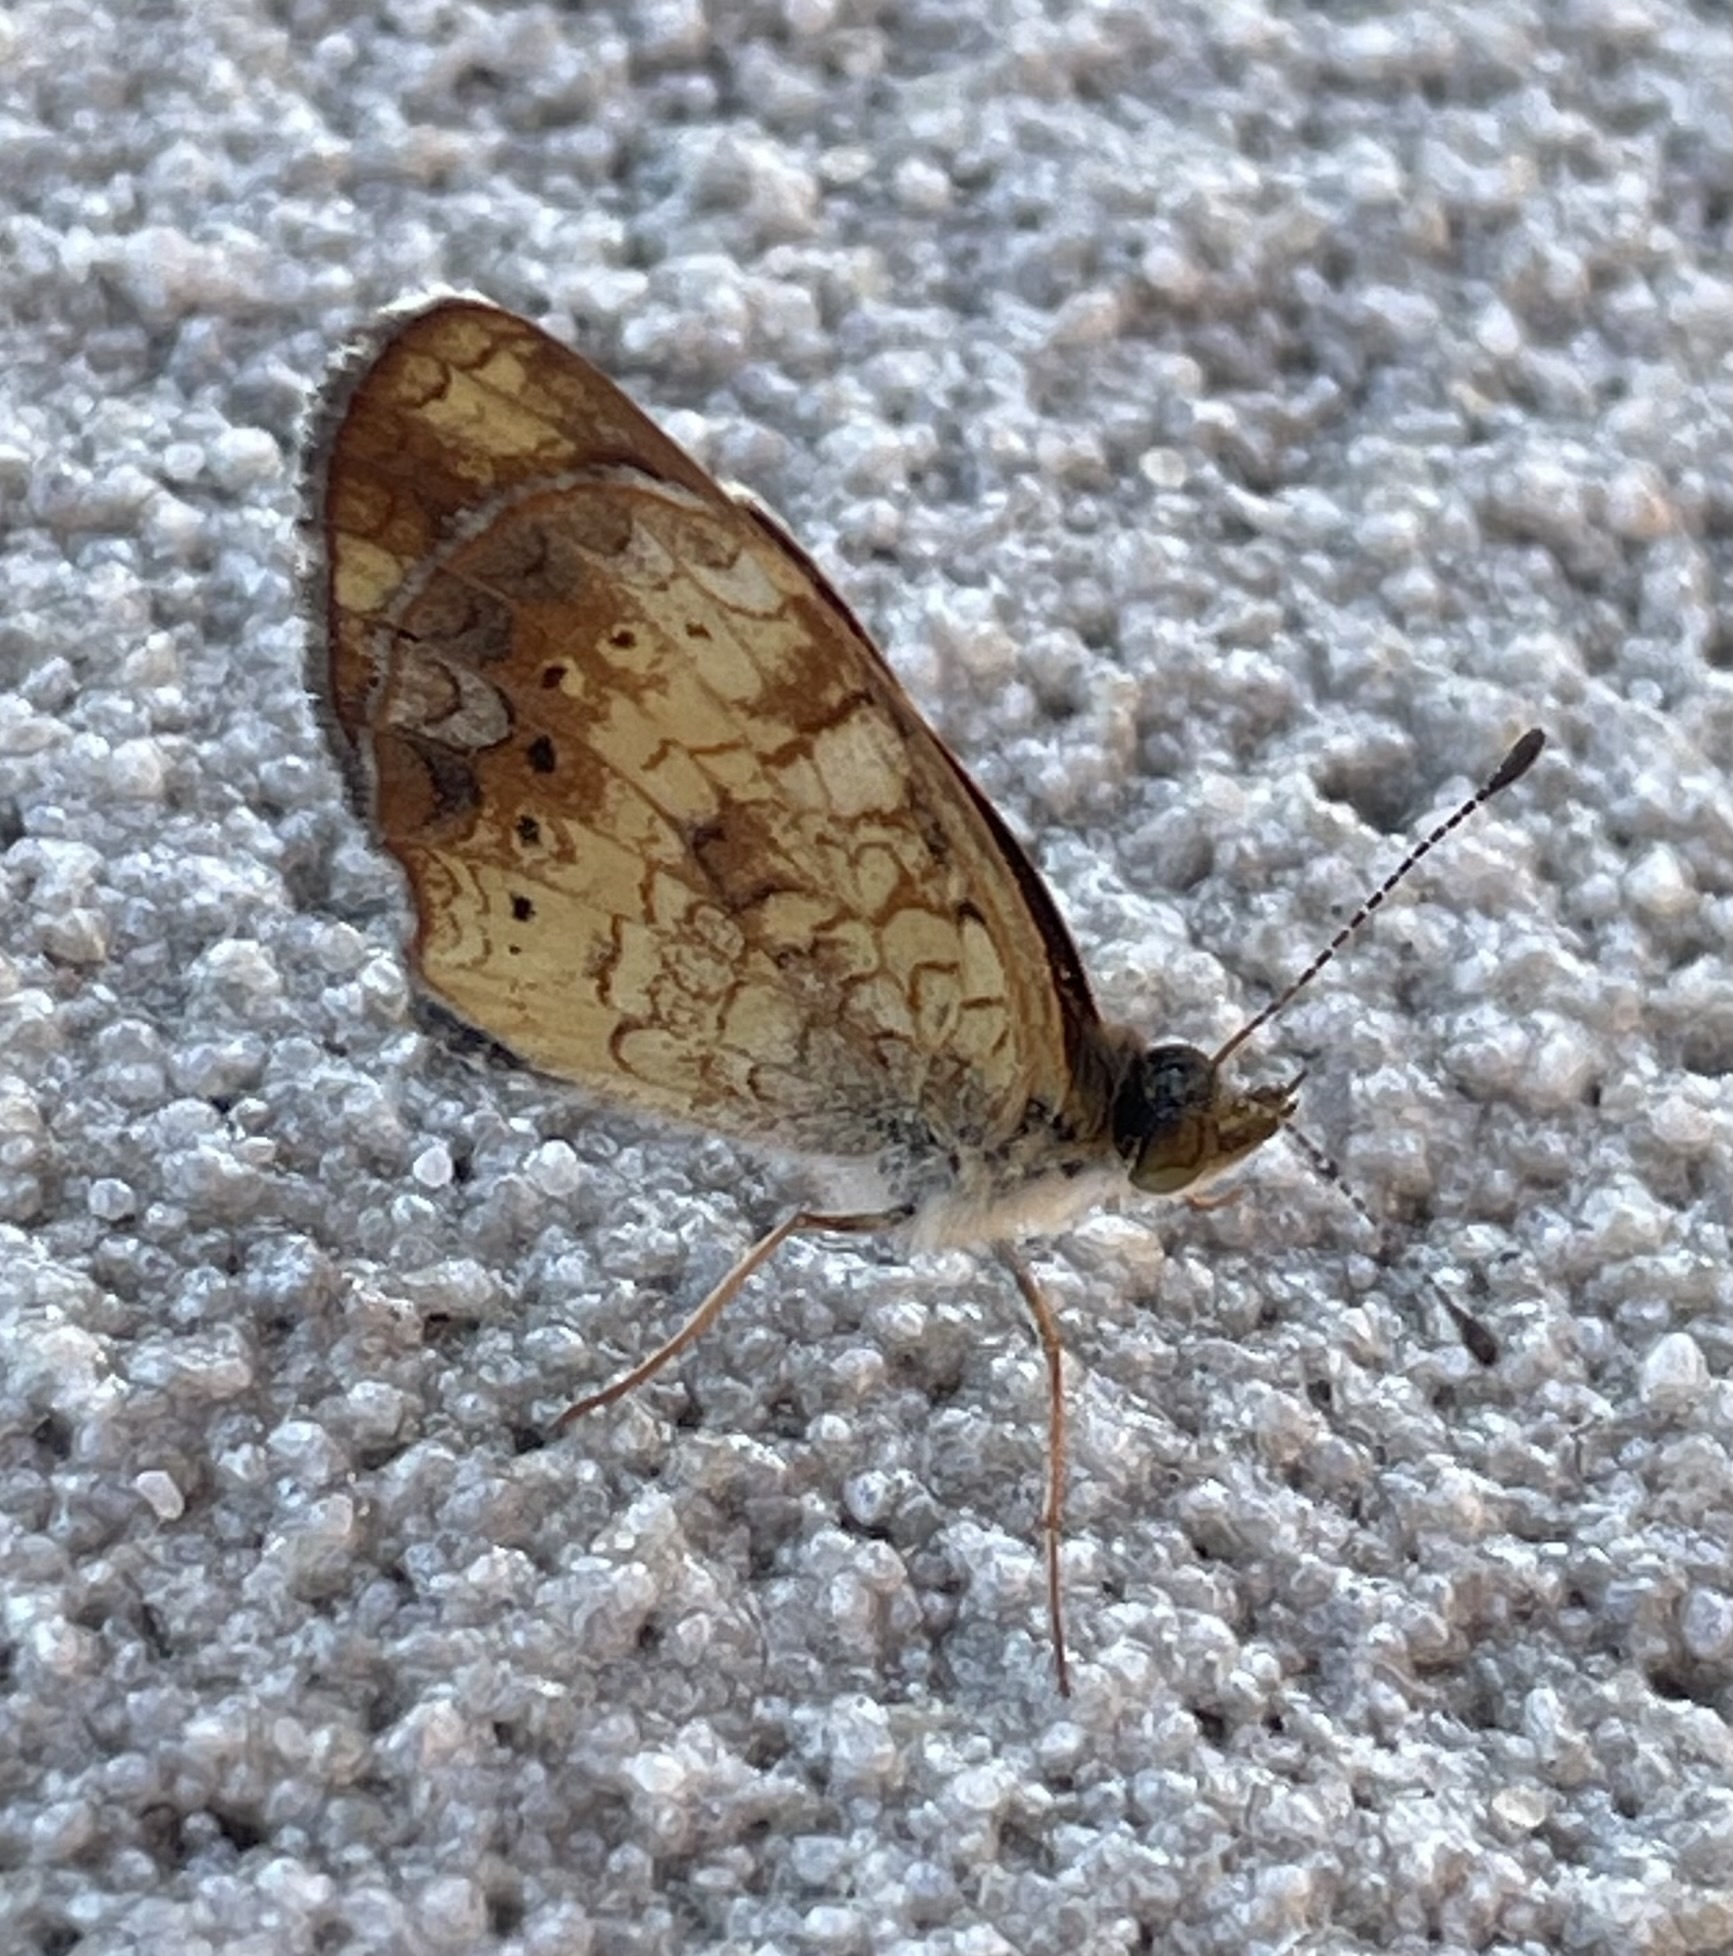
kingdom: Animalia
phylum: Arthropoda
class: Insecta
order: Lepidoptera
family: Nymphalidae
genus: Phyciodes
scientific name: Phyciodes tharos
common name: Pearl crescent
